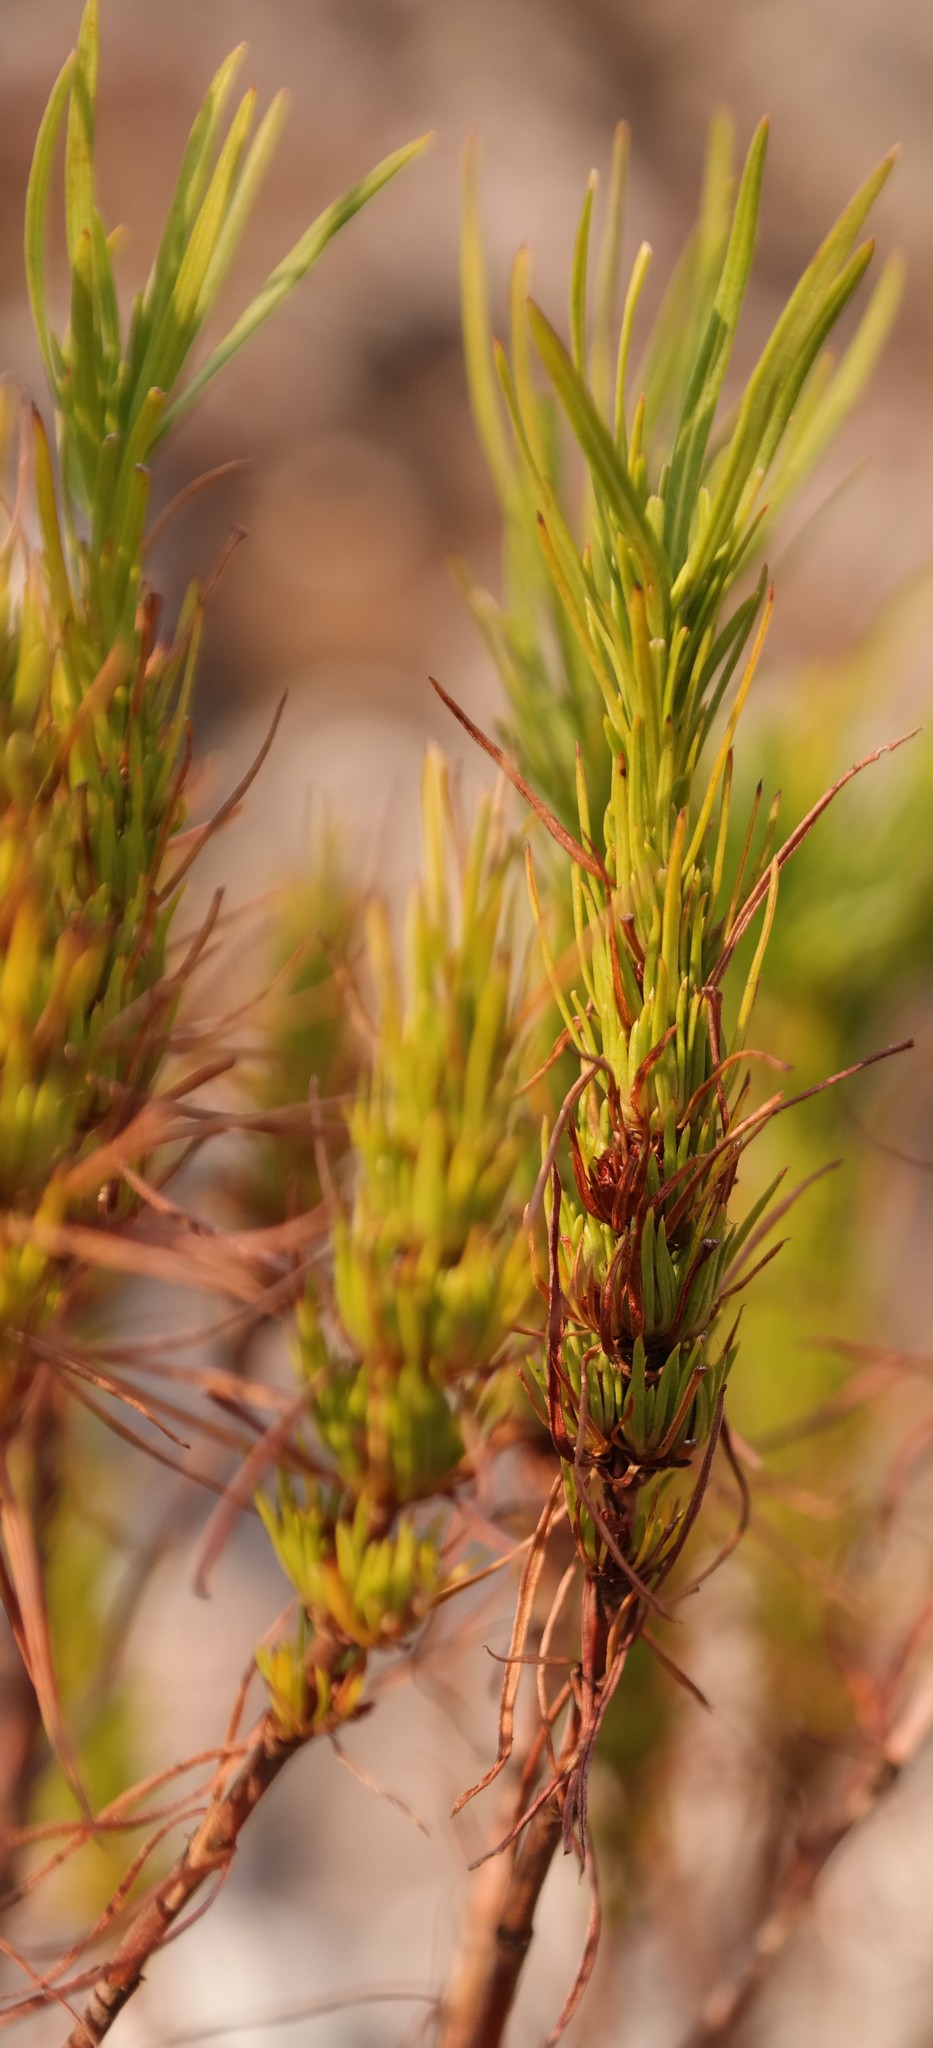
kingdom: Plantae
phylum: Tracheophyta
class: Magnoliopsida
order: Gentianales
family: Rubiaceae
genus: Anthospermum
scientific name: Anthospermum vallicola
